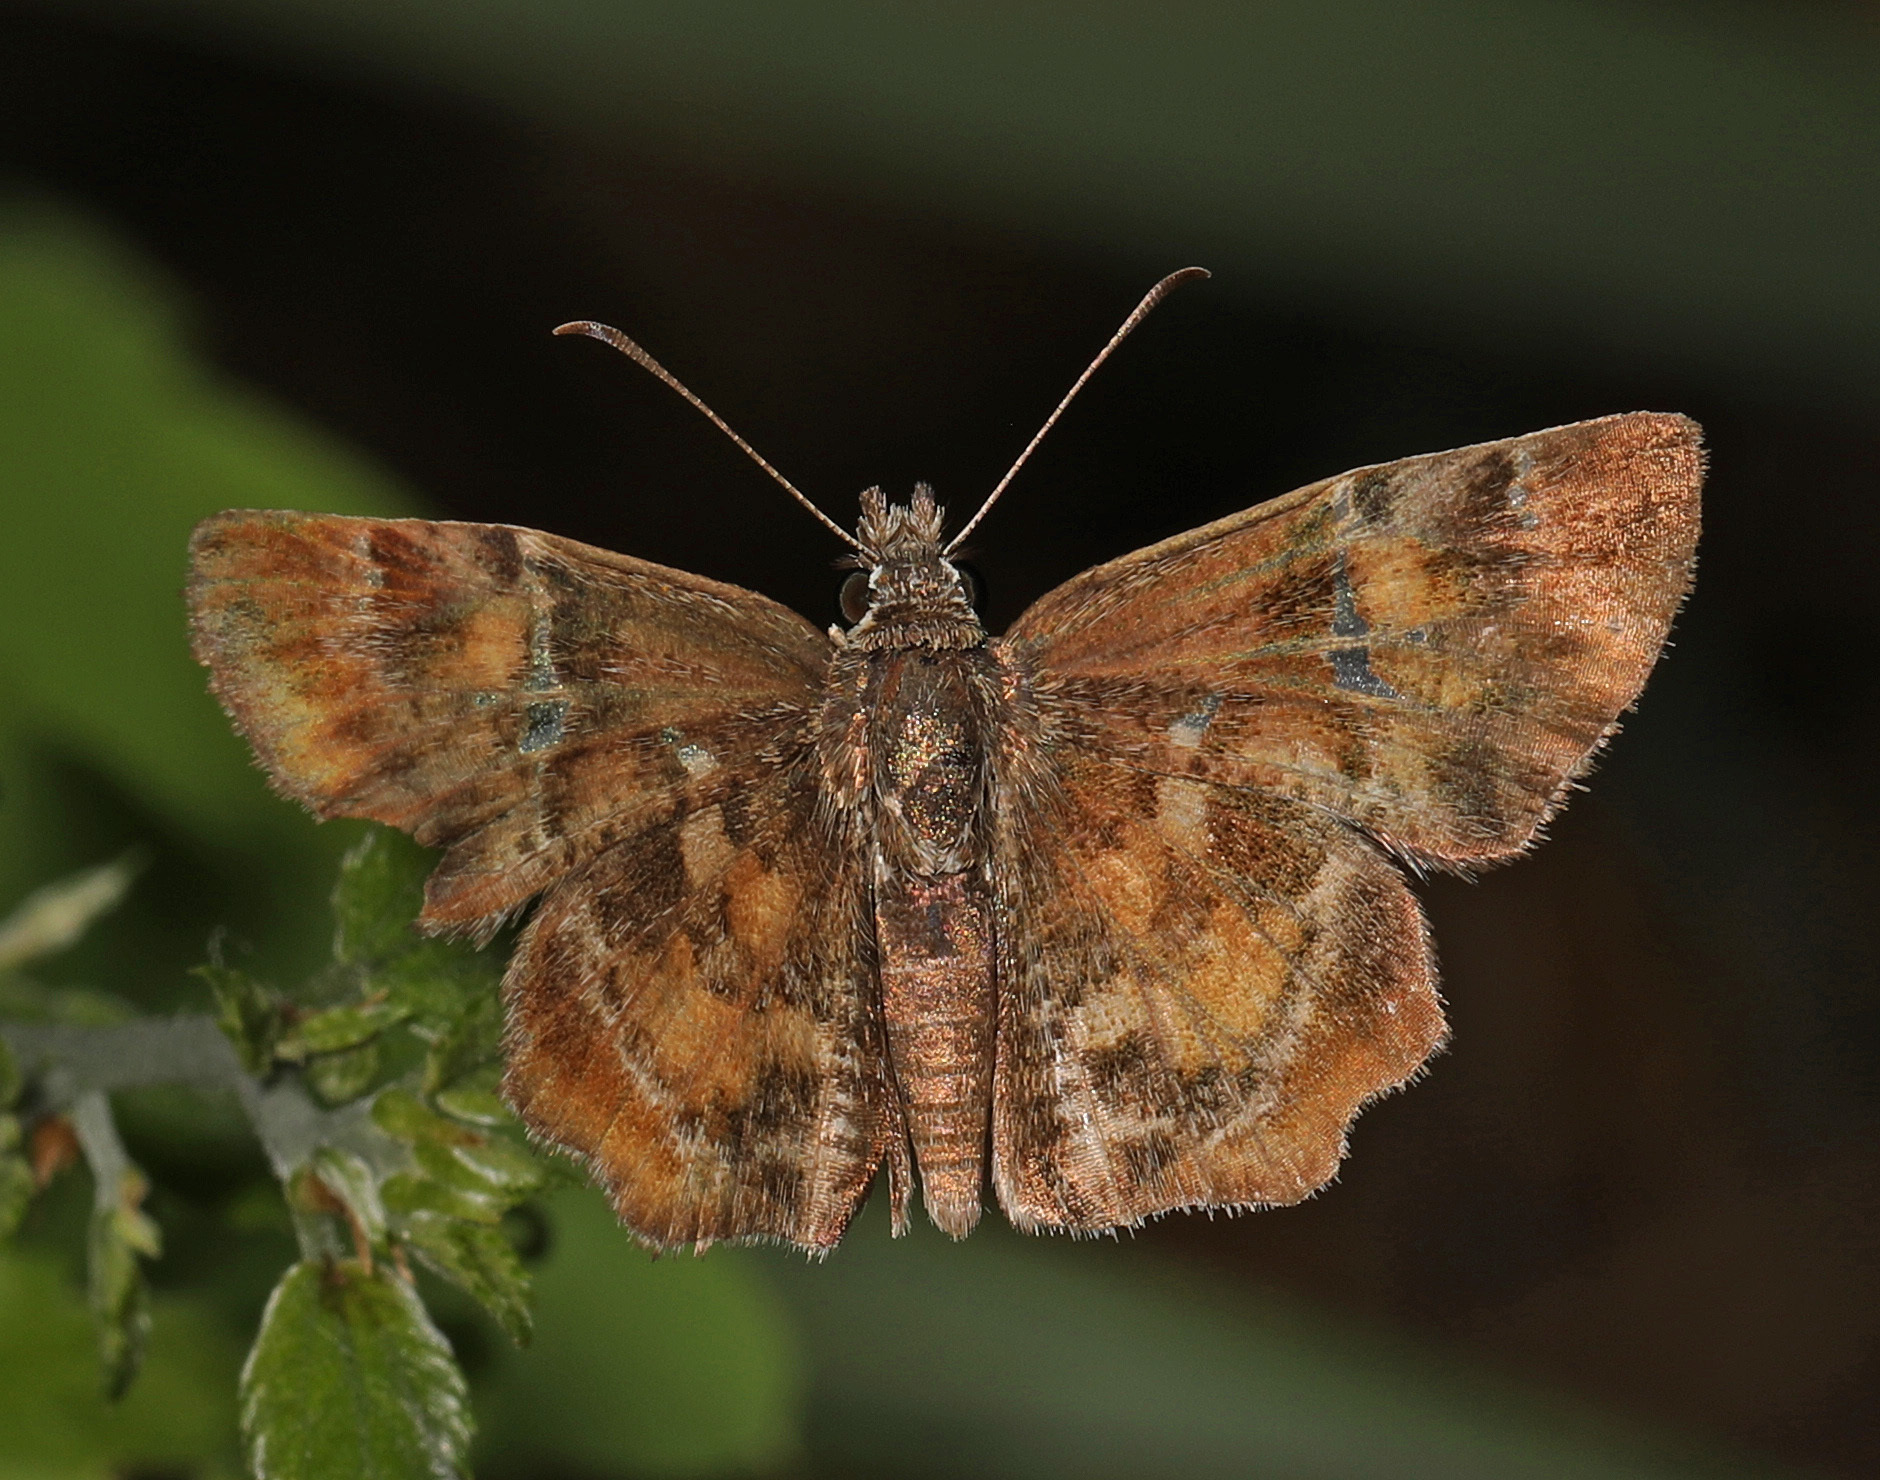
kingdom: Animalia
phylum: Arthropoda
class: Insecta
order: Lepidoptera
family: Hesperiidae
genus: Systasea
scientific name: Systasea pulverulenta
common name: Texas powdered skipper
